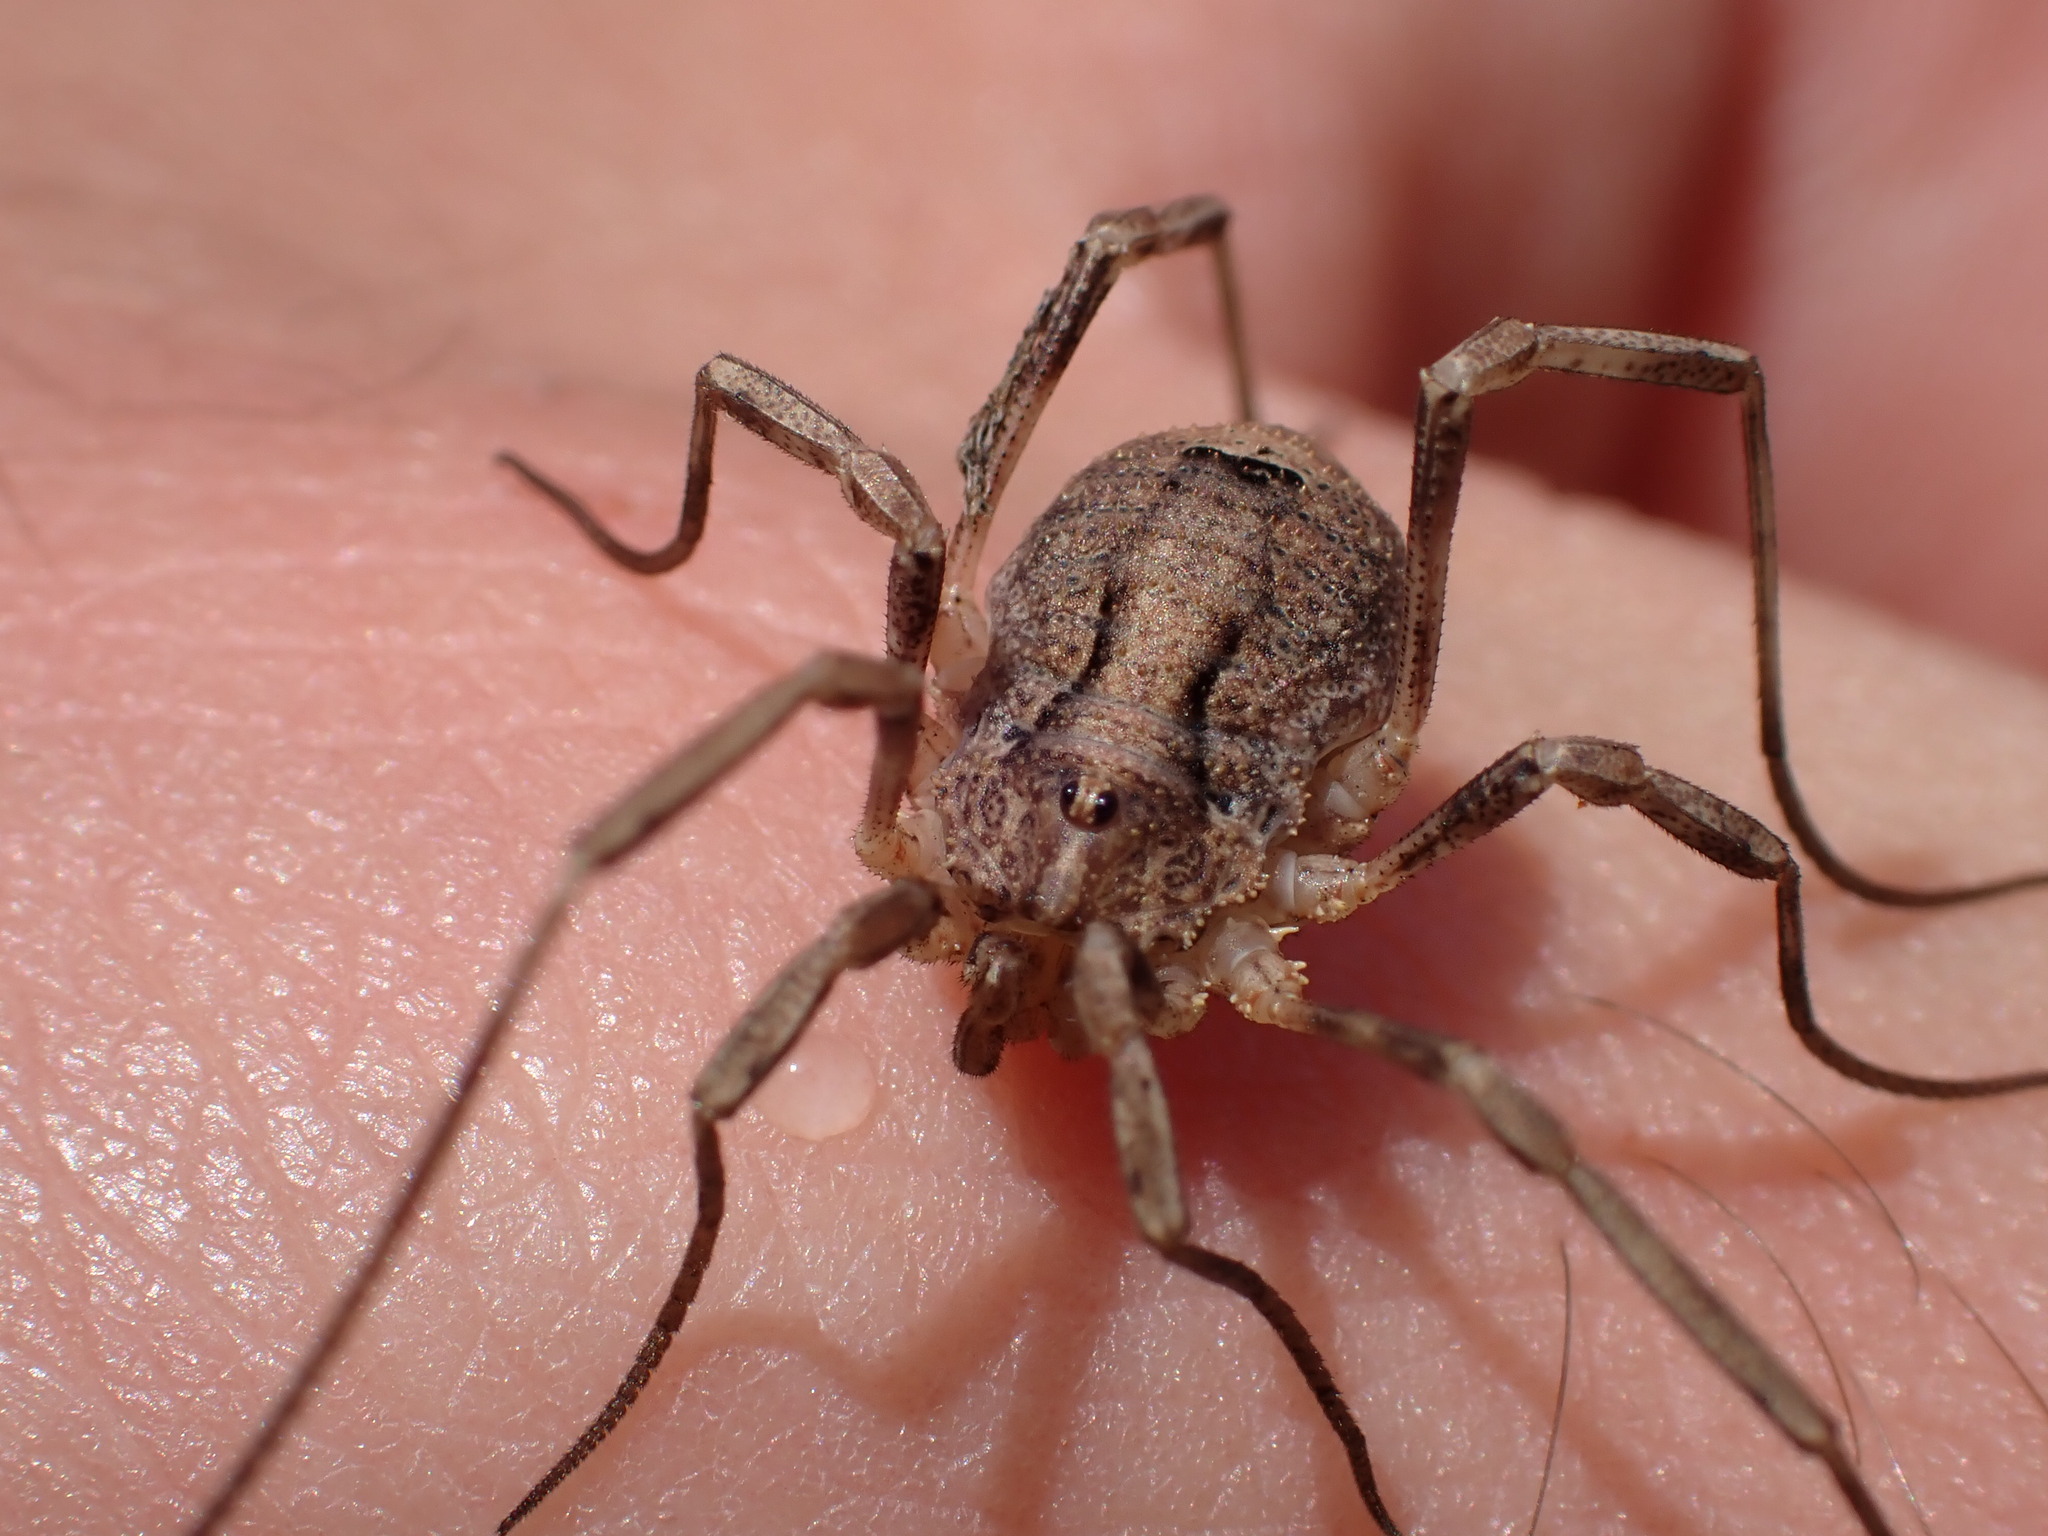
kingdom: Animalia
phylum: Arthropoda
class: Arachnida
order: Opiliones
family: Phalangiidae
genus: Odiellus
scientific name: Odiellus spinosus
